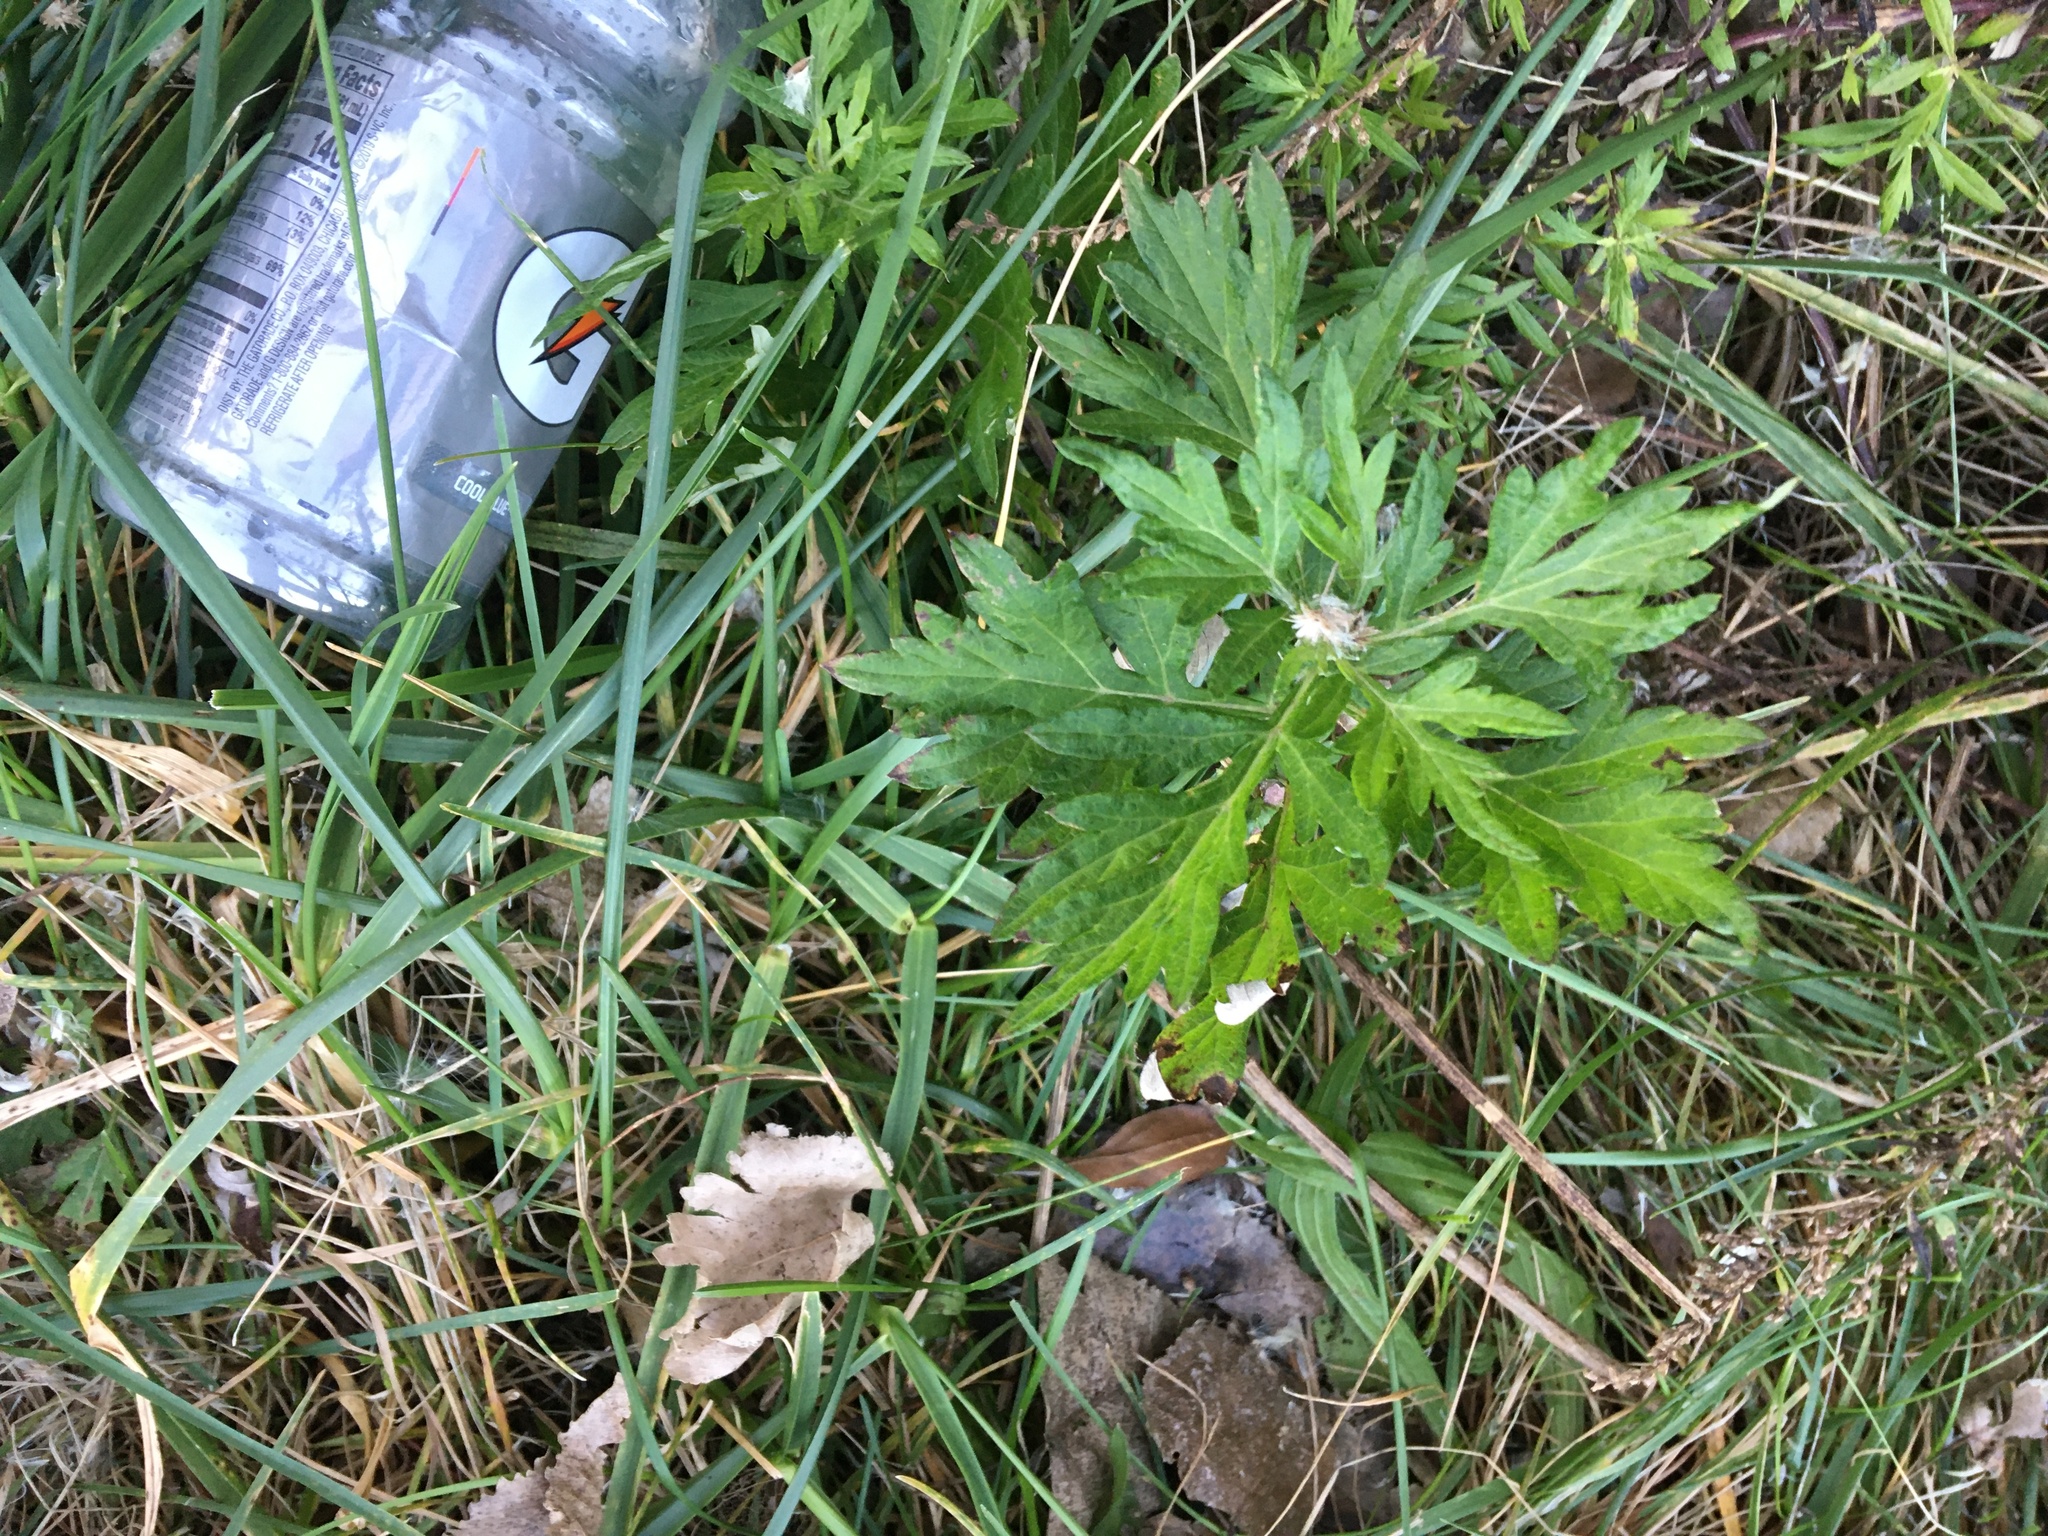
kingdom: Plantae
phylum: Tracheophyta
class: Magnoliopsida
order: Asterales
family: Asteraceae
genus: Artemisia
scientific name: Artemisia vulgaris
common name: Mugwort
